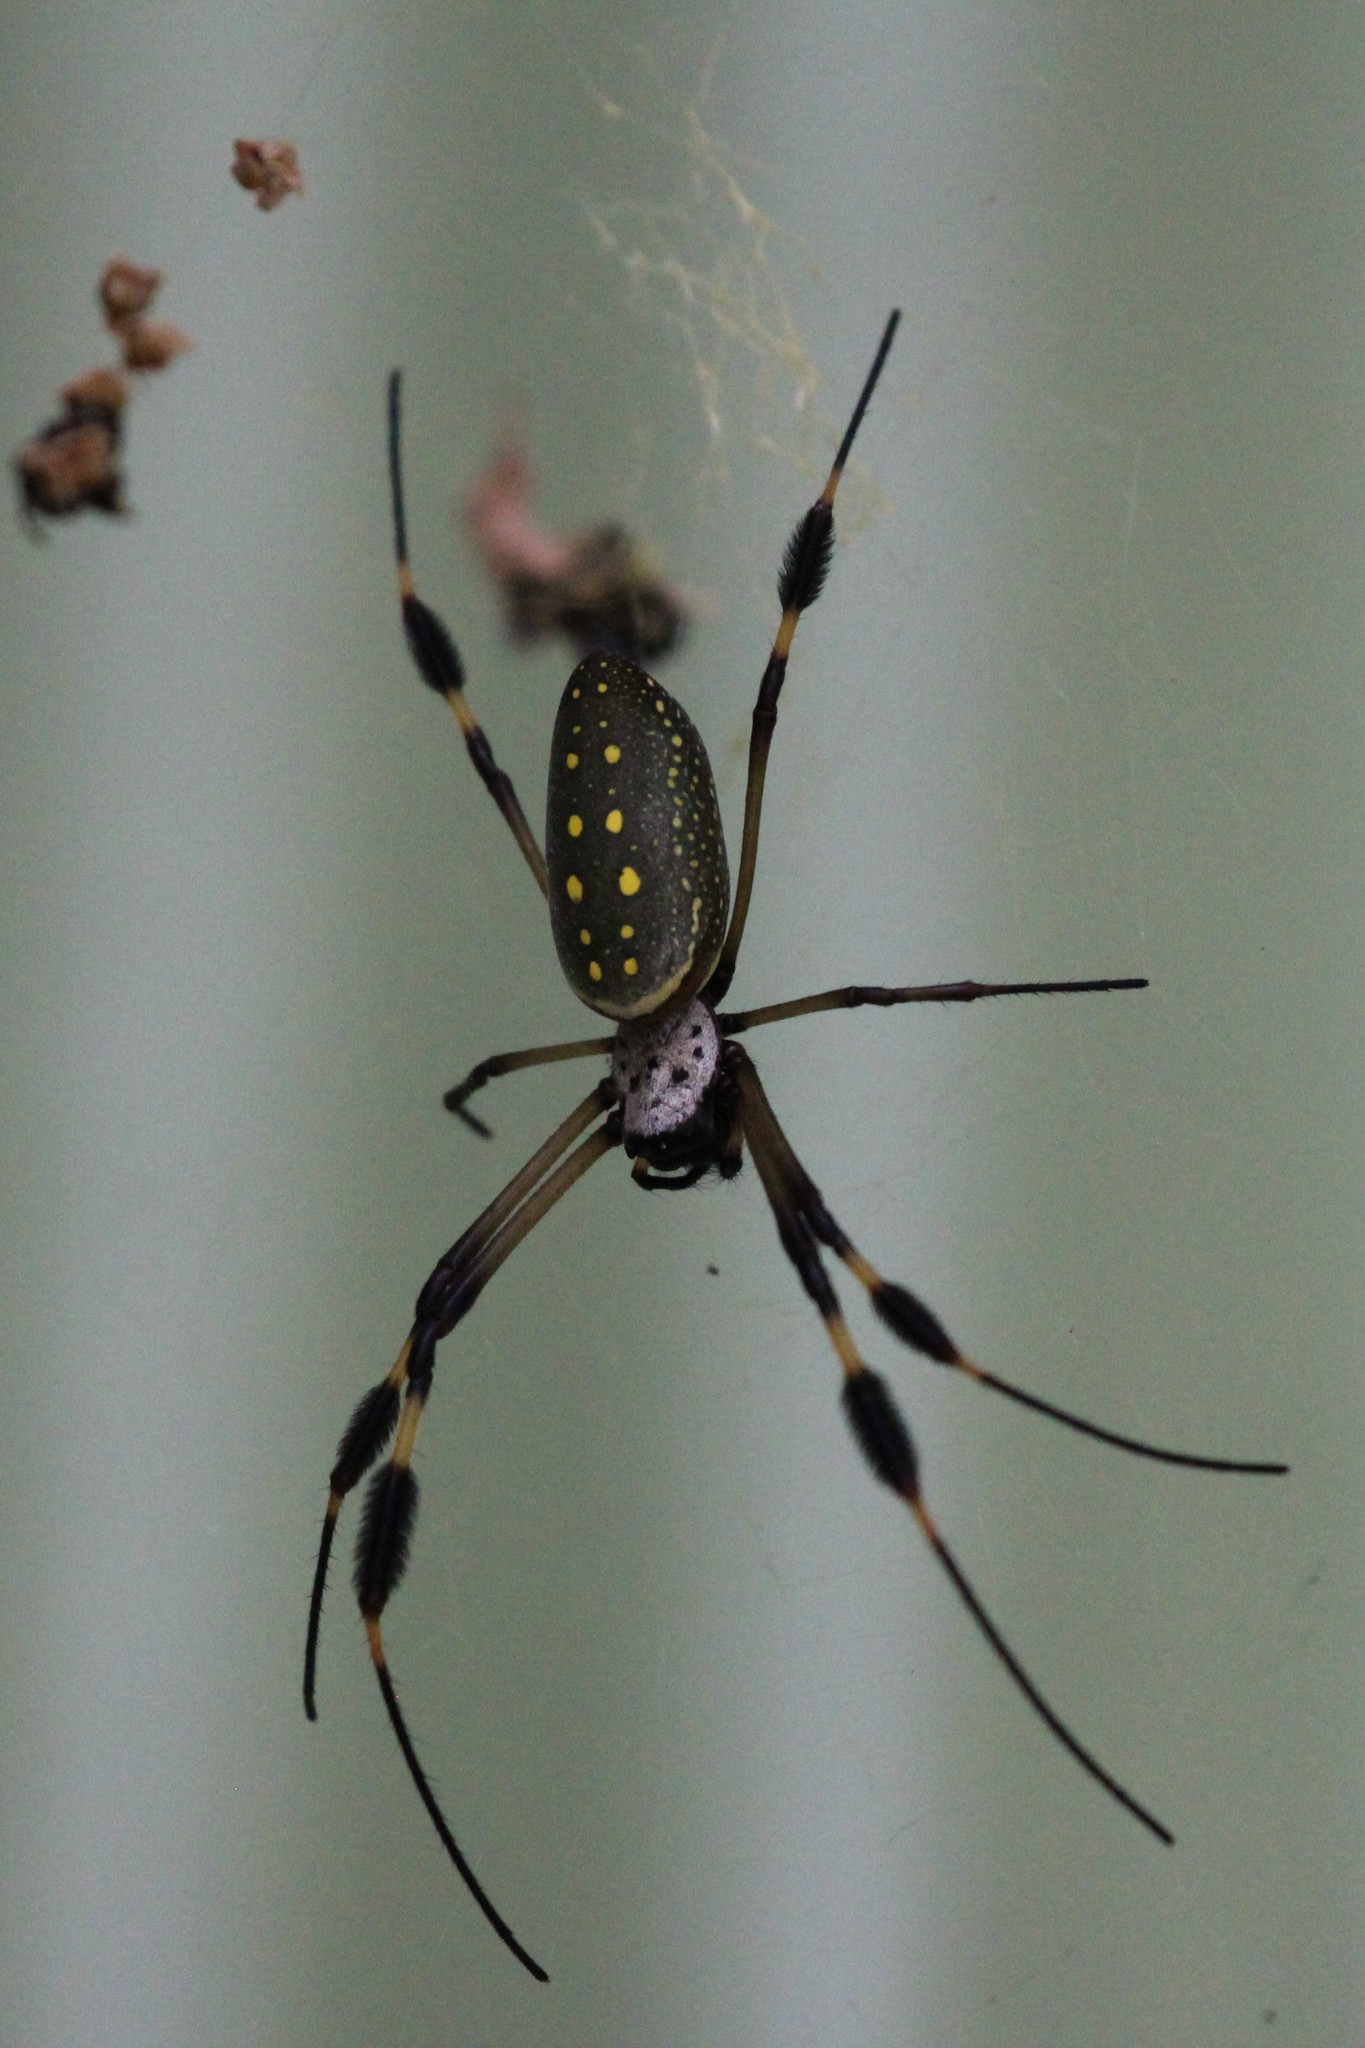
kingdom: Animalia
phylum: Arthropoda
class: Arachnida
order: Araneae
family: Araneidae
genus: Trichonephila
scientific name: Trichonephila clavipes
